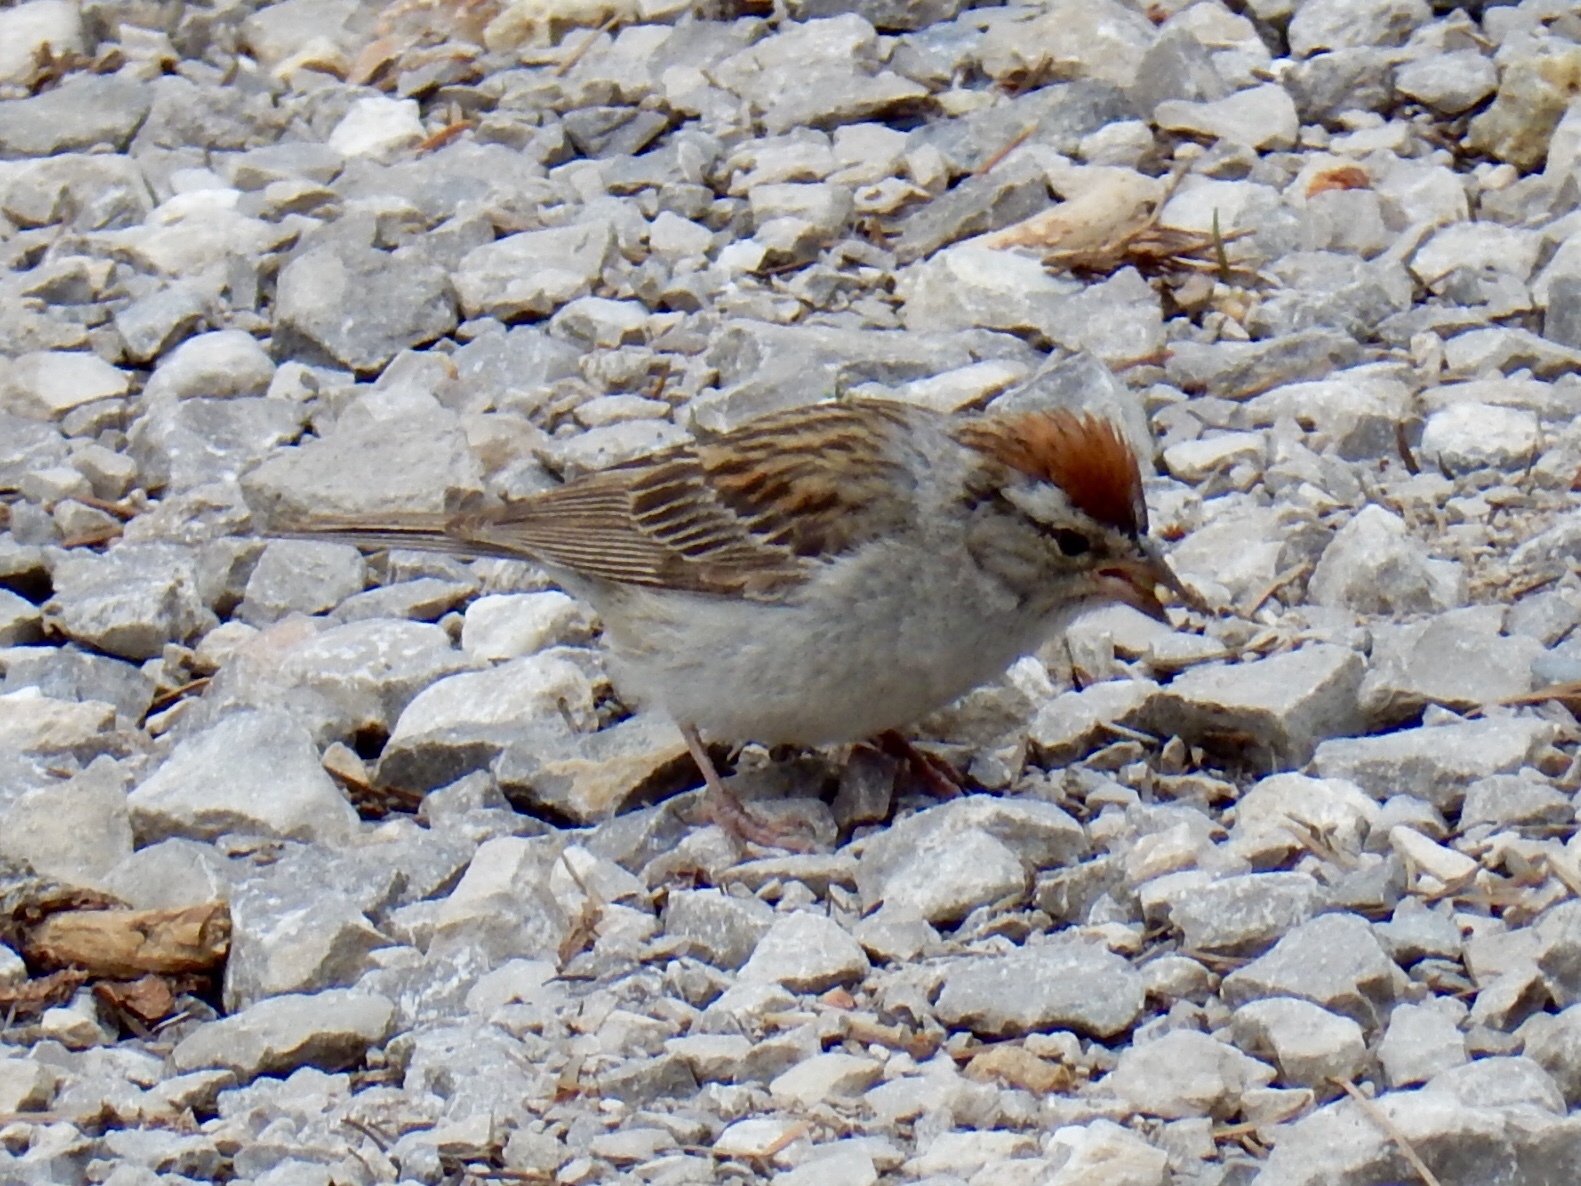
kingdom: Animalia
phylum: Chordata
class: Aves
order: Passeriformes
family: Passerellidae
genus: Spizella
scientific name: Spizella passerina
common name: Chipping sparrow
